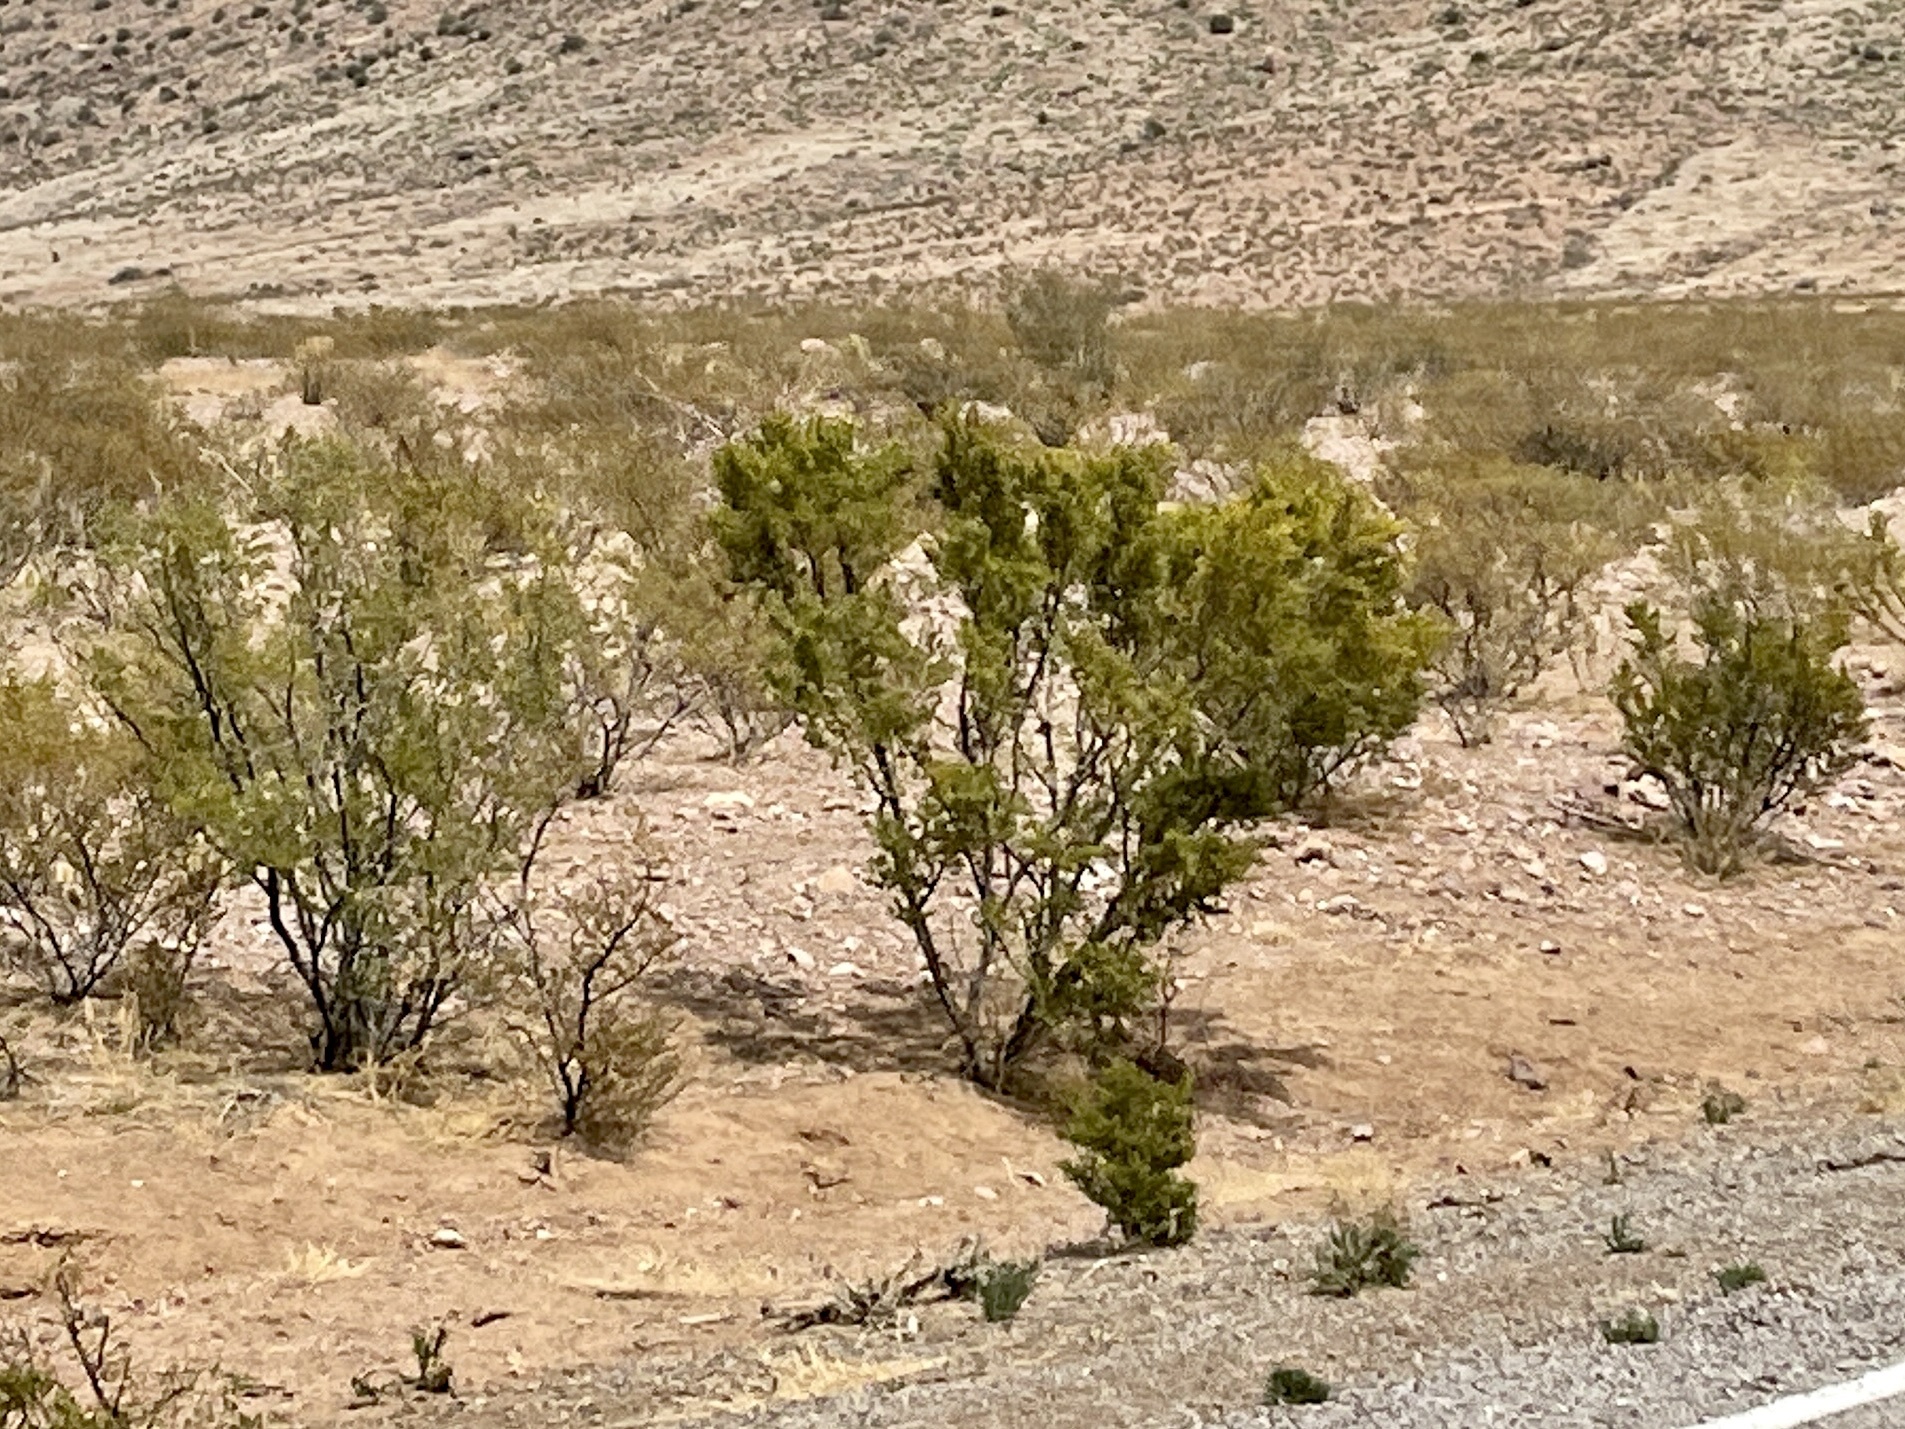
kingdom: Plantae
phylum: Tracheophyta
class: Magnoliopsida
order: Zygophyllales
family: Zygophyllaceae
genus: Larrea
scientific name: Larrea tridentata
